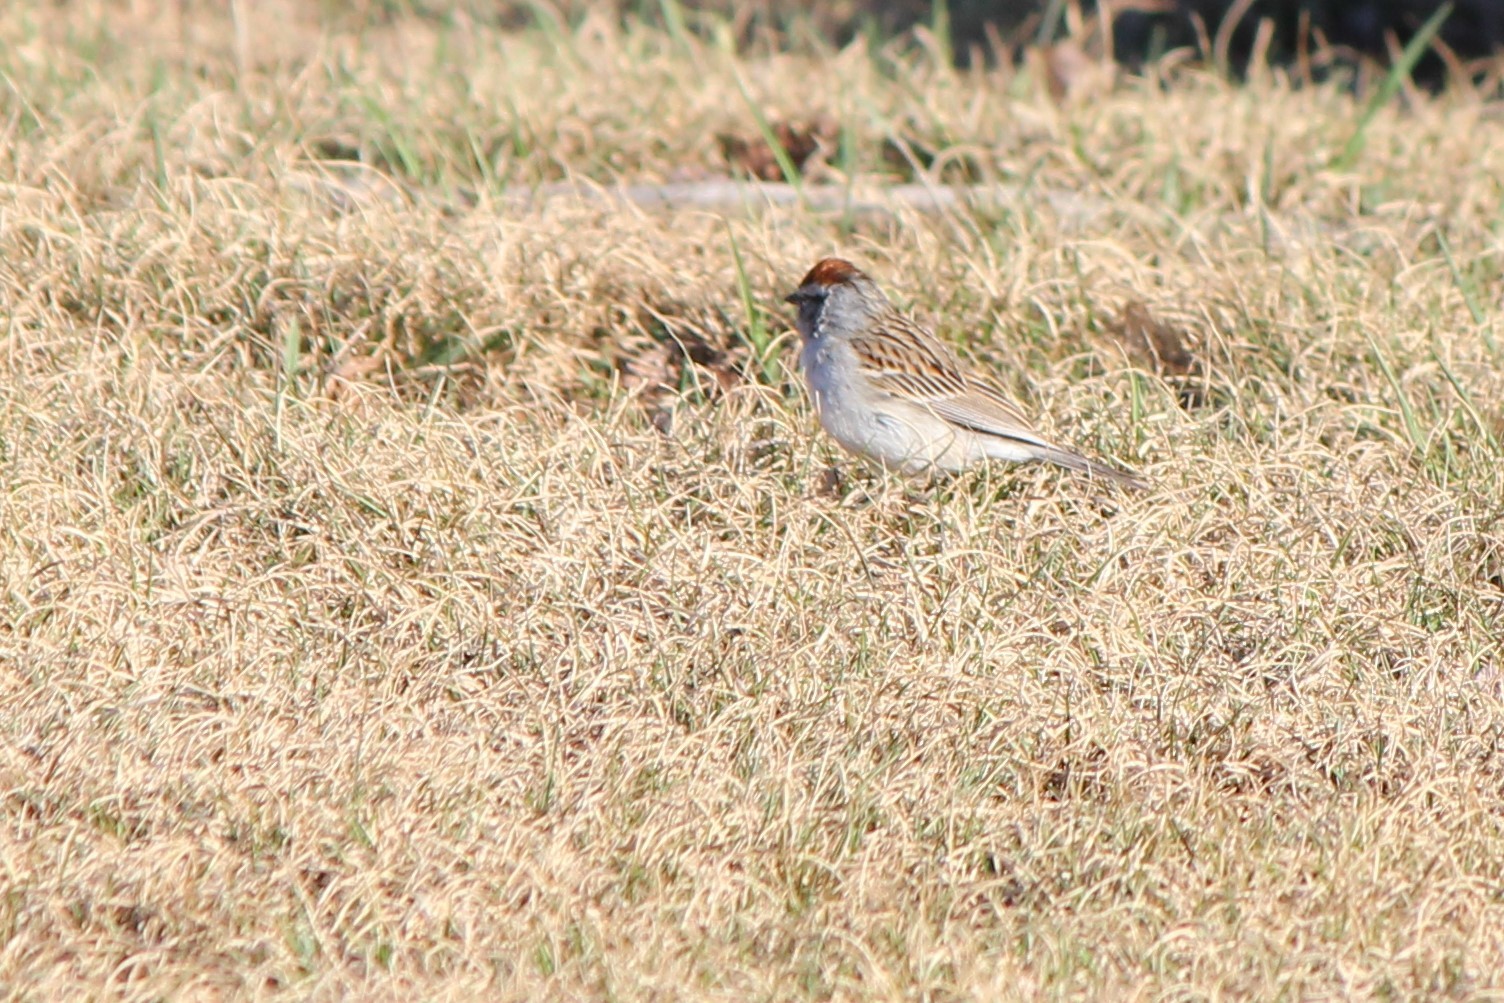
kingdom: Animalia
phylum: Chordata
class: Aves
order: Passeriformes
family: Passerellidae
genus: Spizella
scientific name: Spizella passerina
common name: Chipping sparrow
